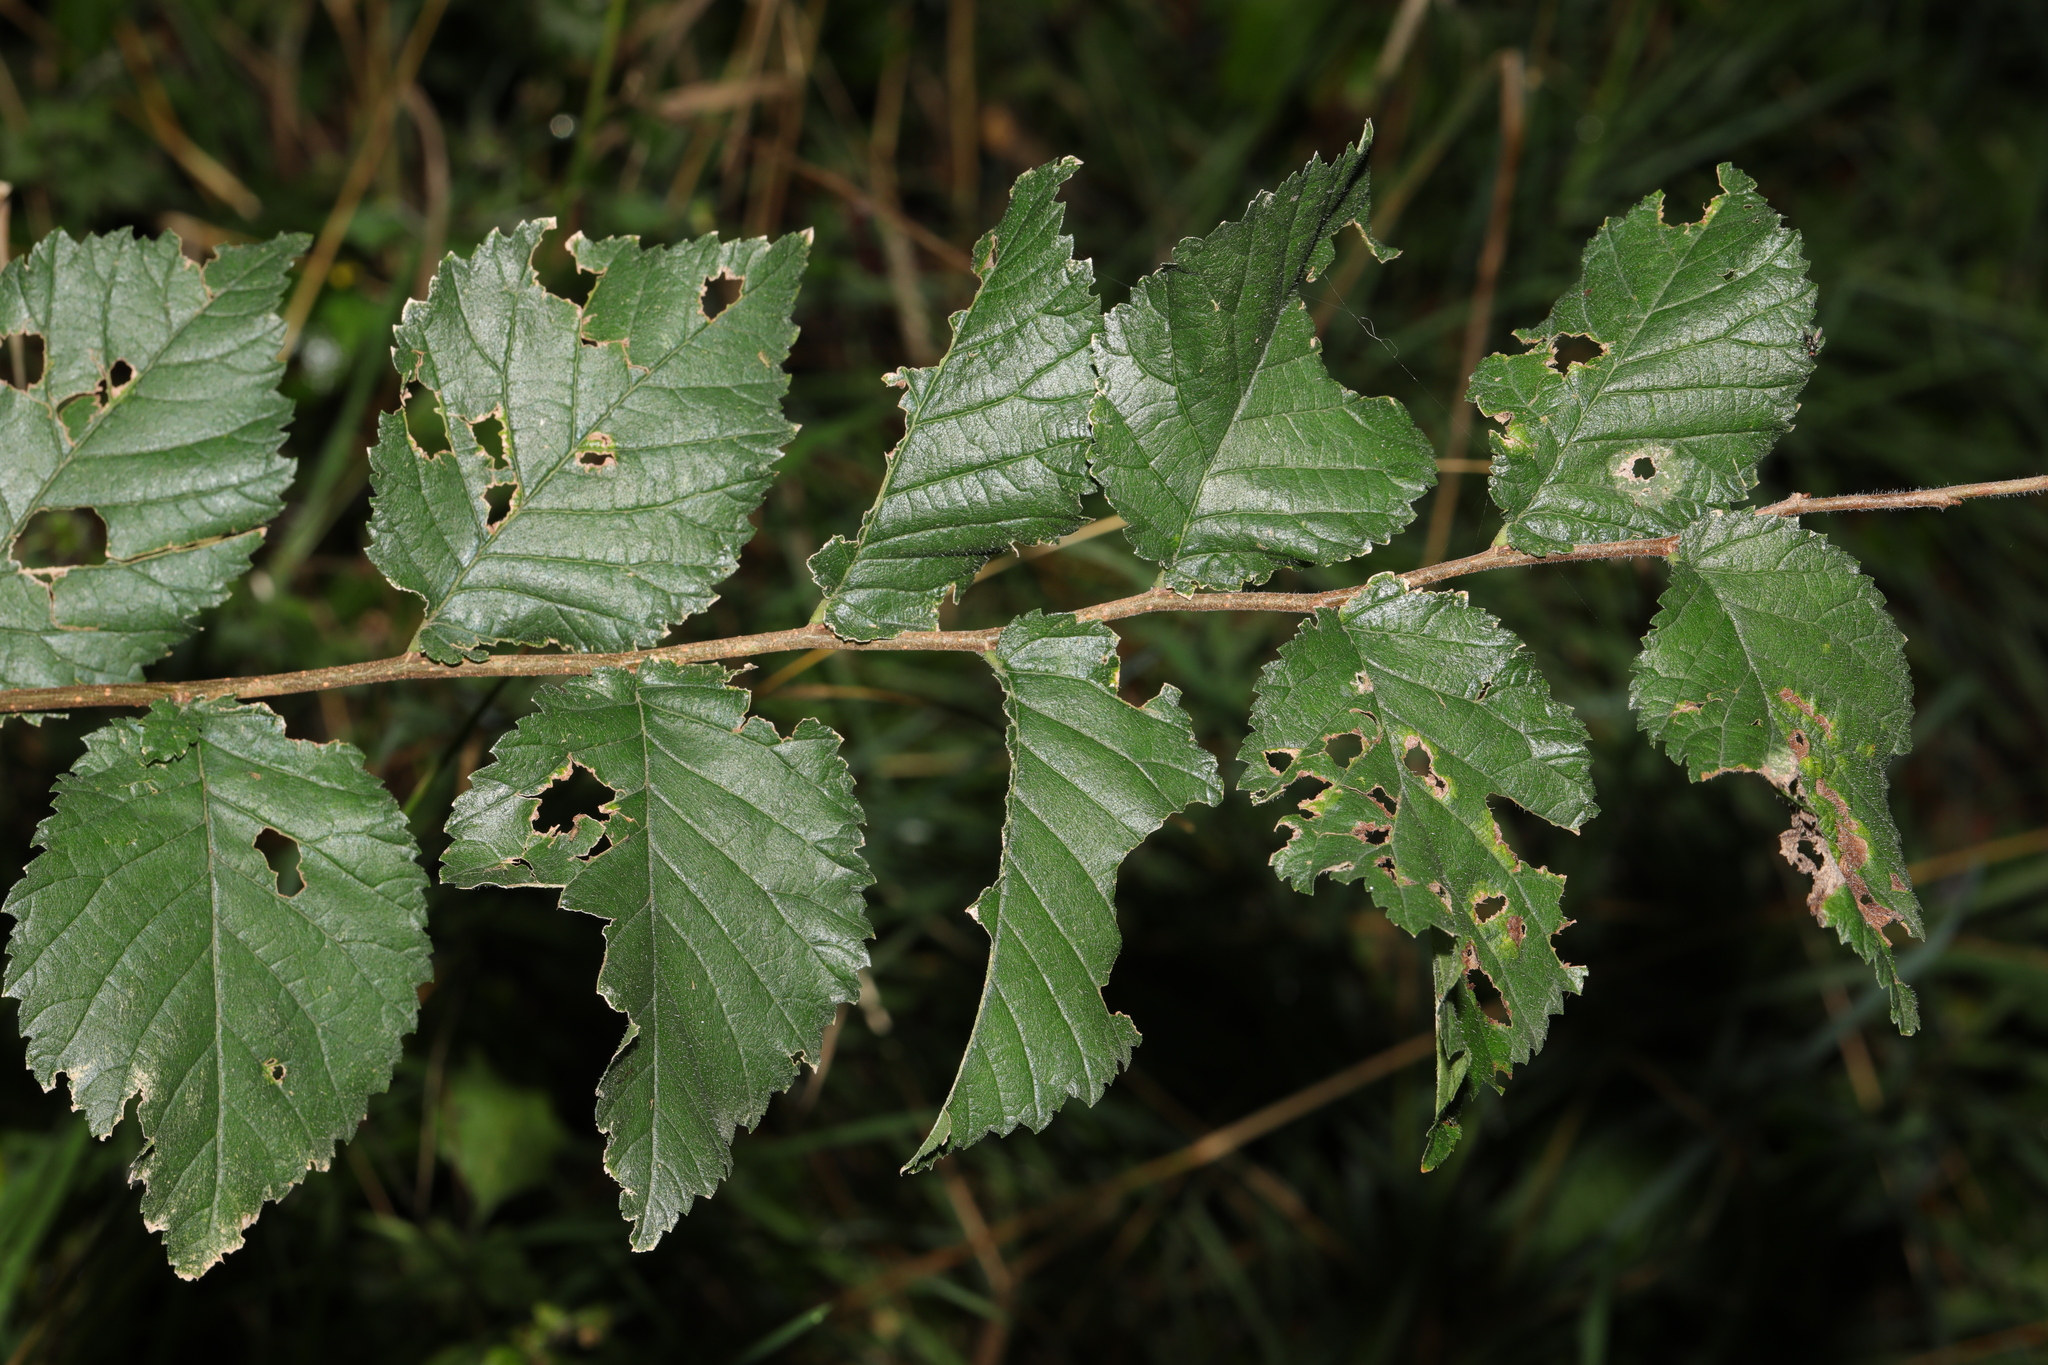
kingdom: Plantae
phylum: Tracheophyta
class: Magnoliopsida
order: Rosales
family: Ulmaceae
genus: Ulmus
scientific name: Ulmus minor
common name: Small-leaved elm
